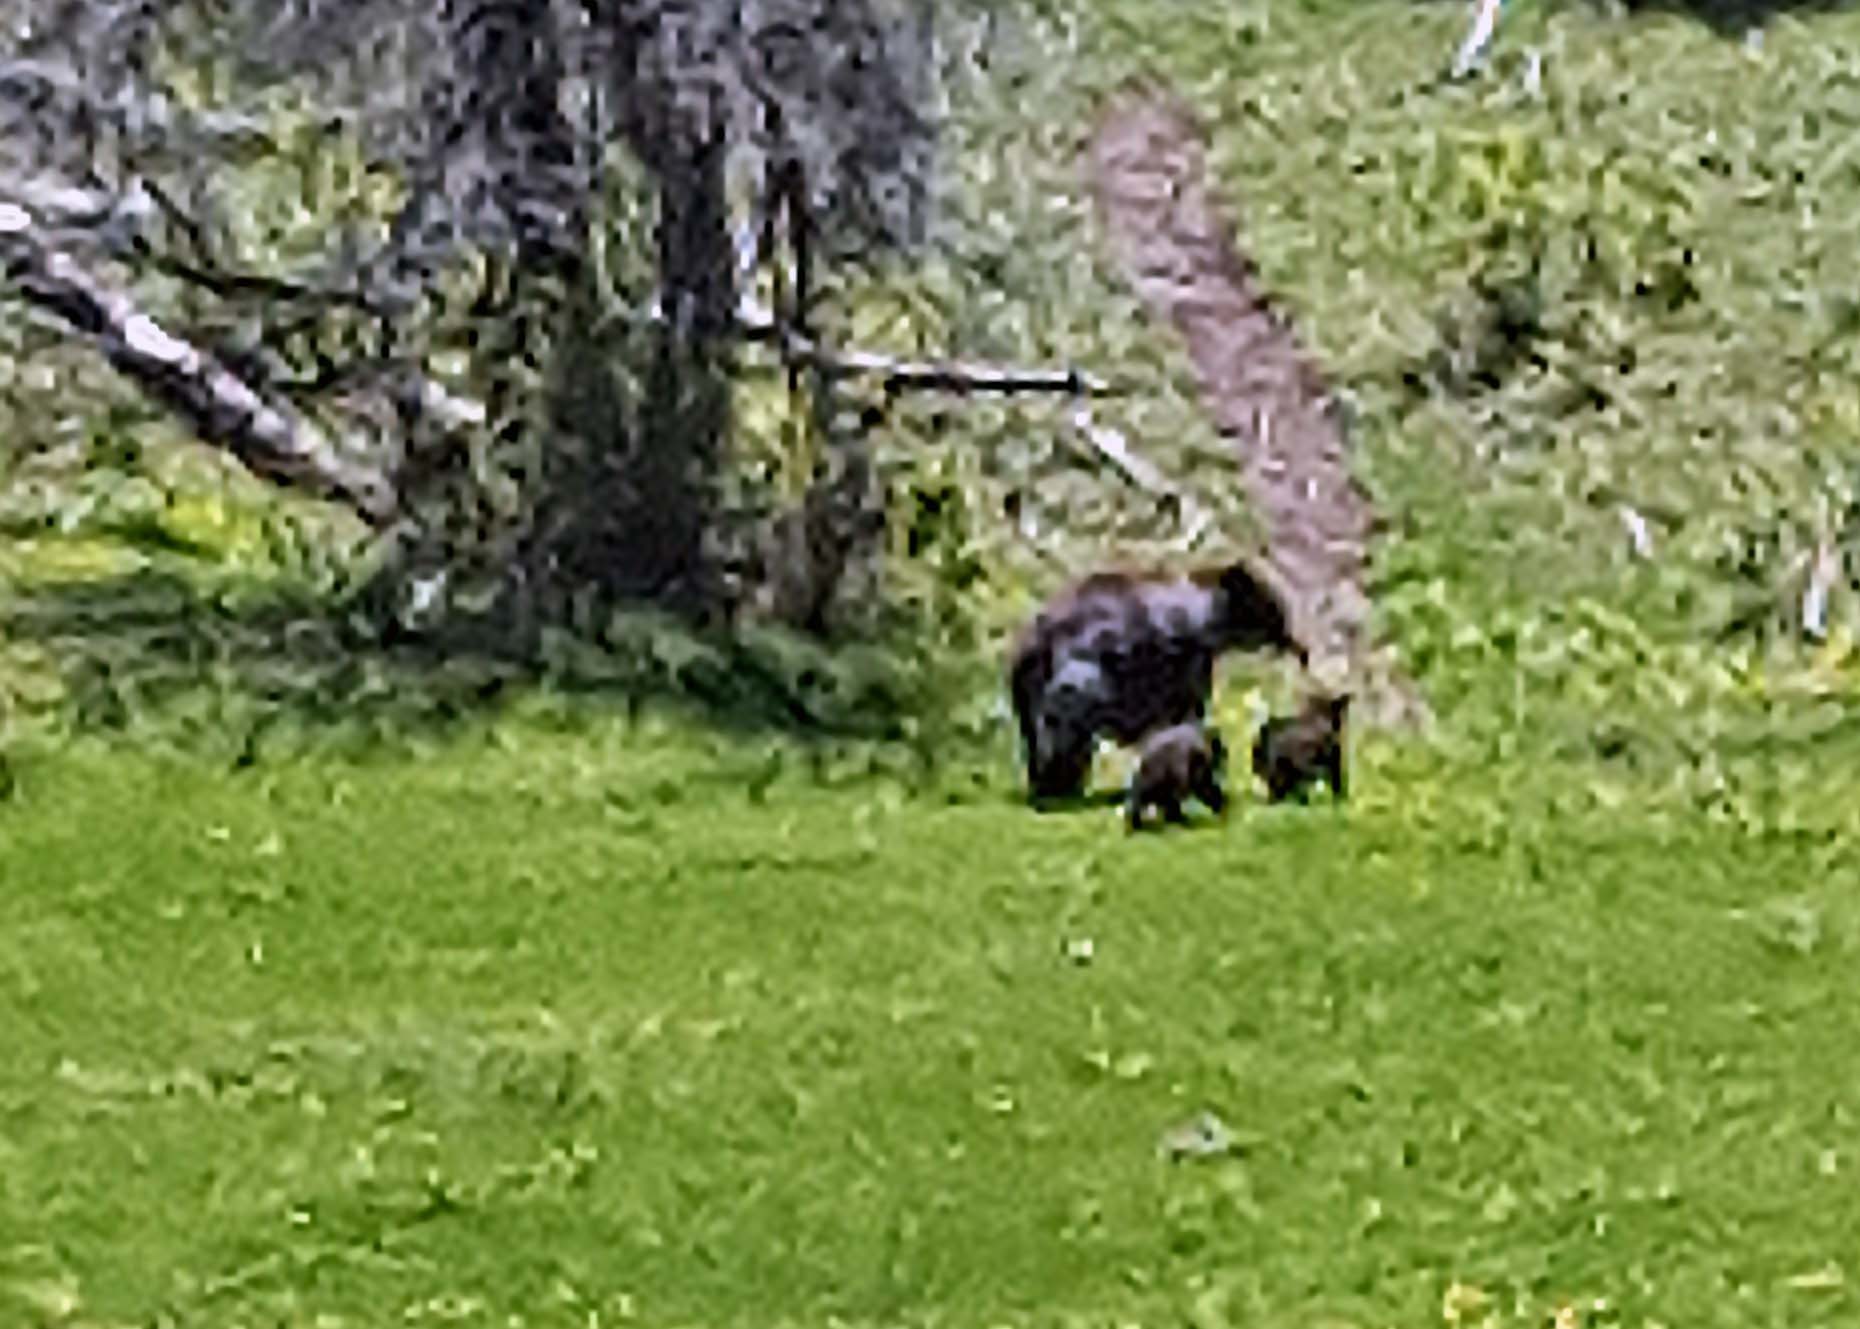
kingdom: Animalia
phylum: Chordata
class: Mammalia
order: Carnivora
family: Ursidae
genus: Ursus
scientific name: Ursus americanus
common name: American black bear
